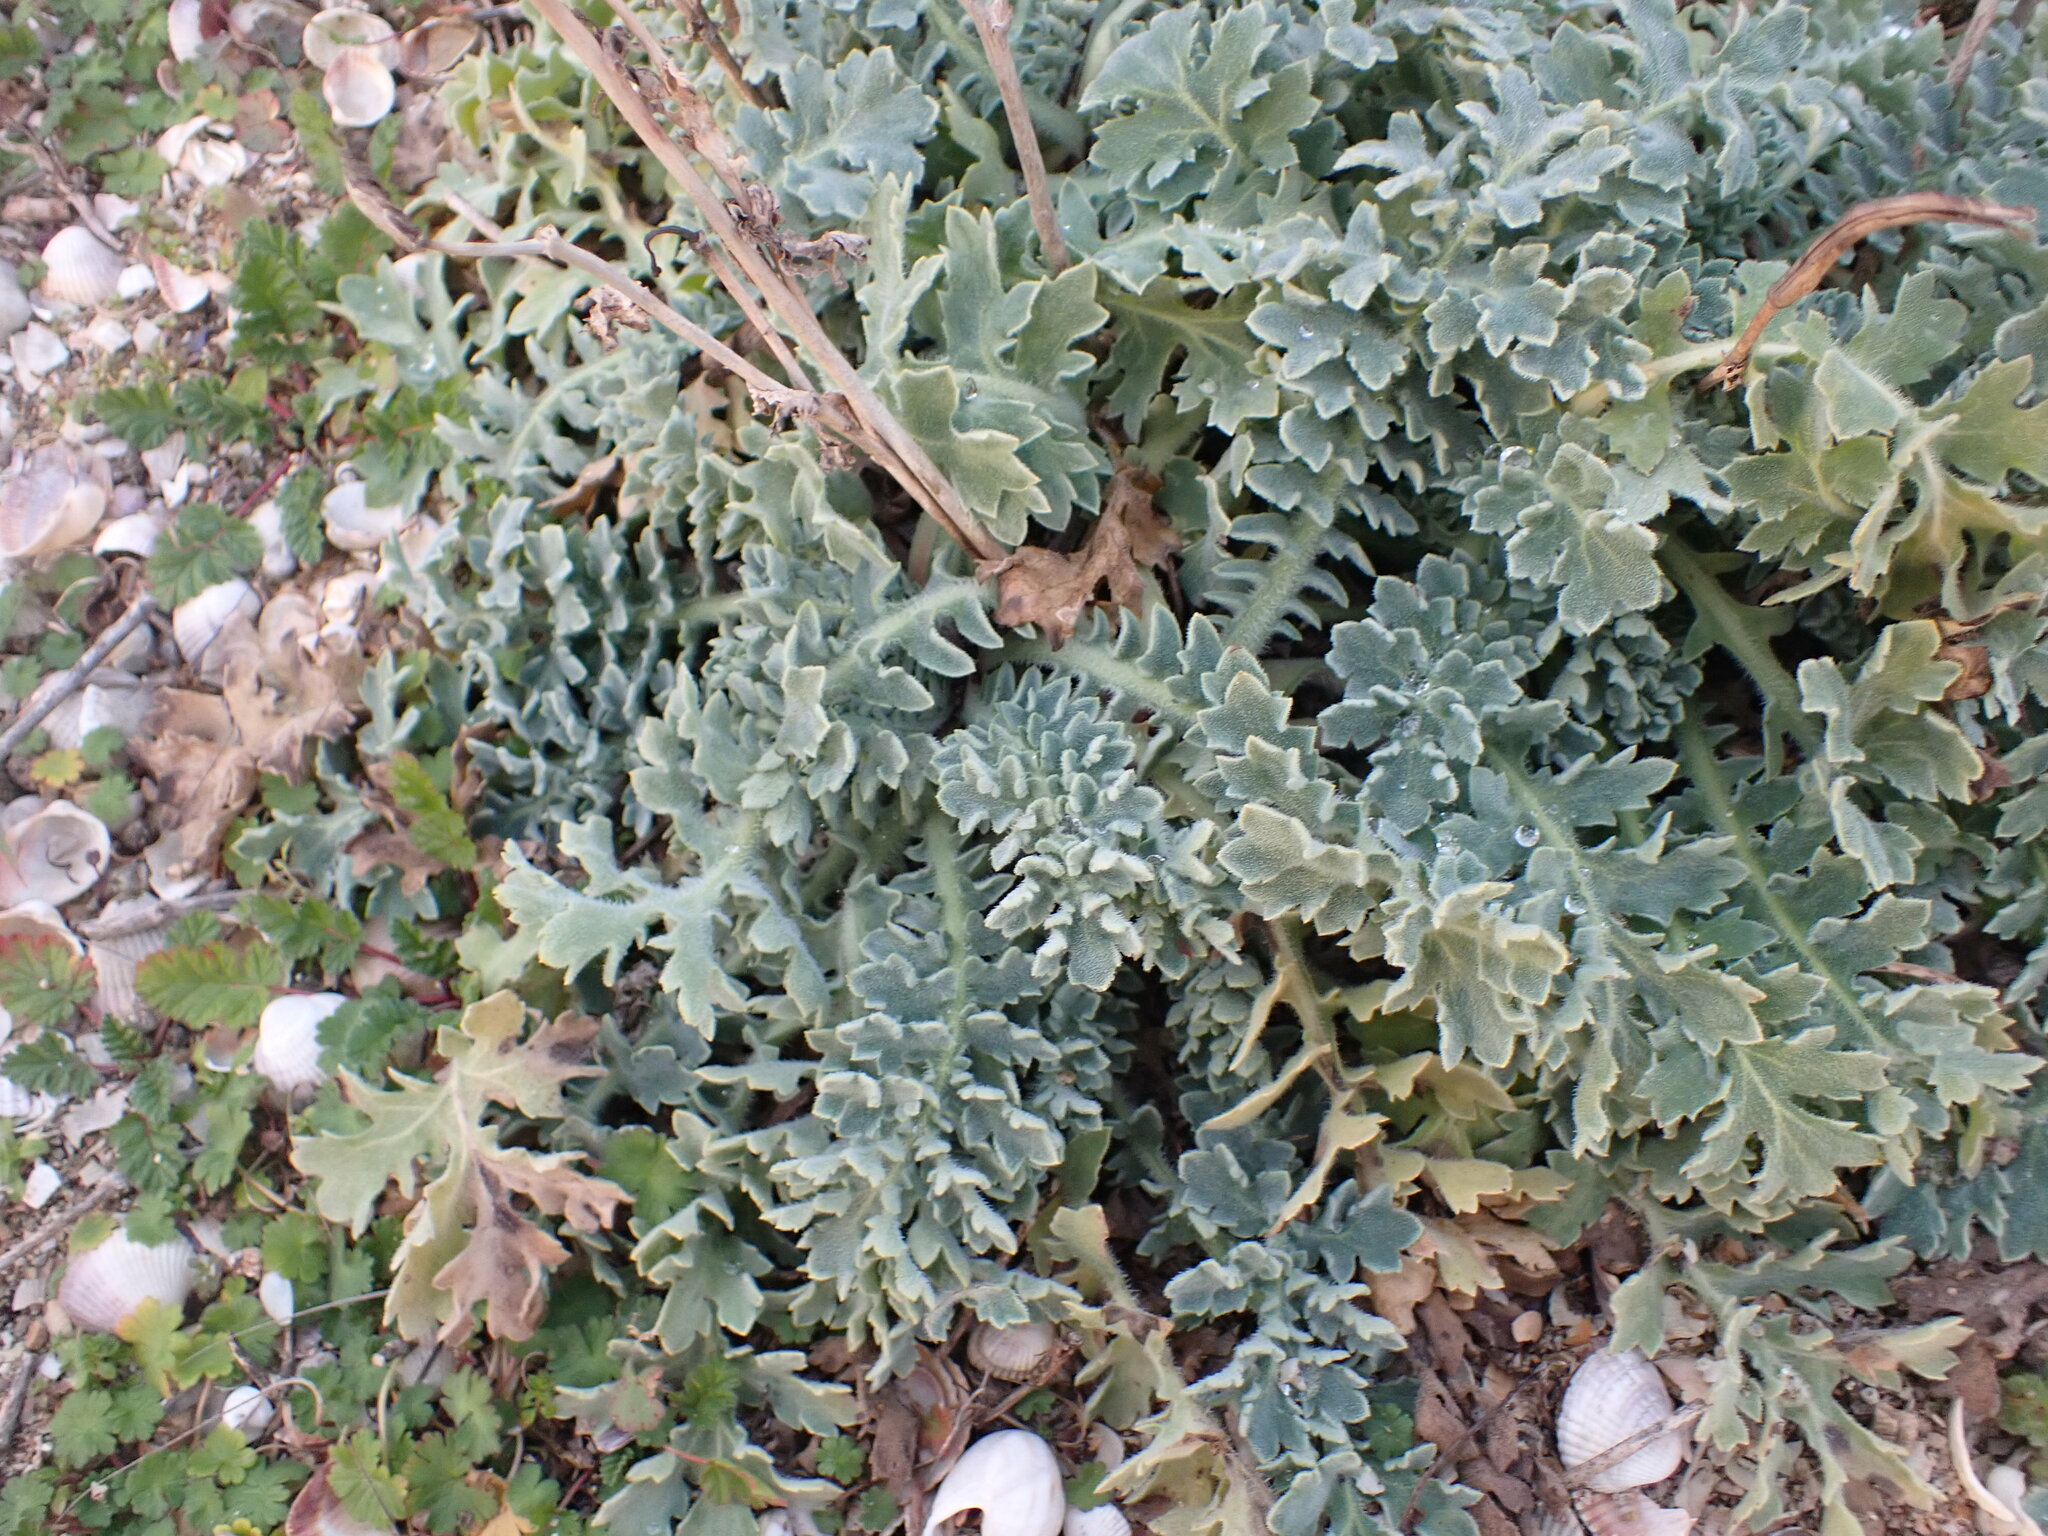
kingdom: Plantae
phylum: Tracheophyta
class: Magnoliopsida
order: Ranunculales
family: Papaveraceae
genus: Glaucium
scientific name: Glaucium flavum
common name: Yellow horned-poppy
